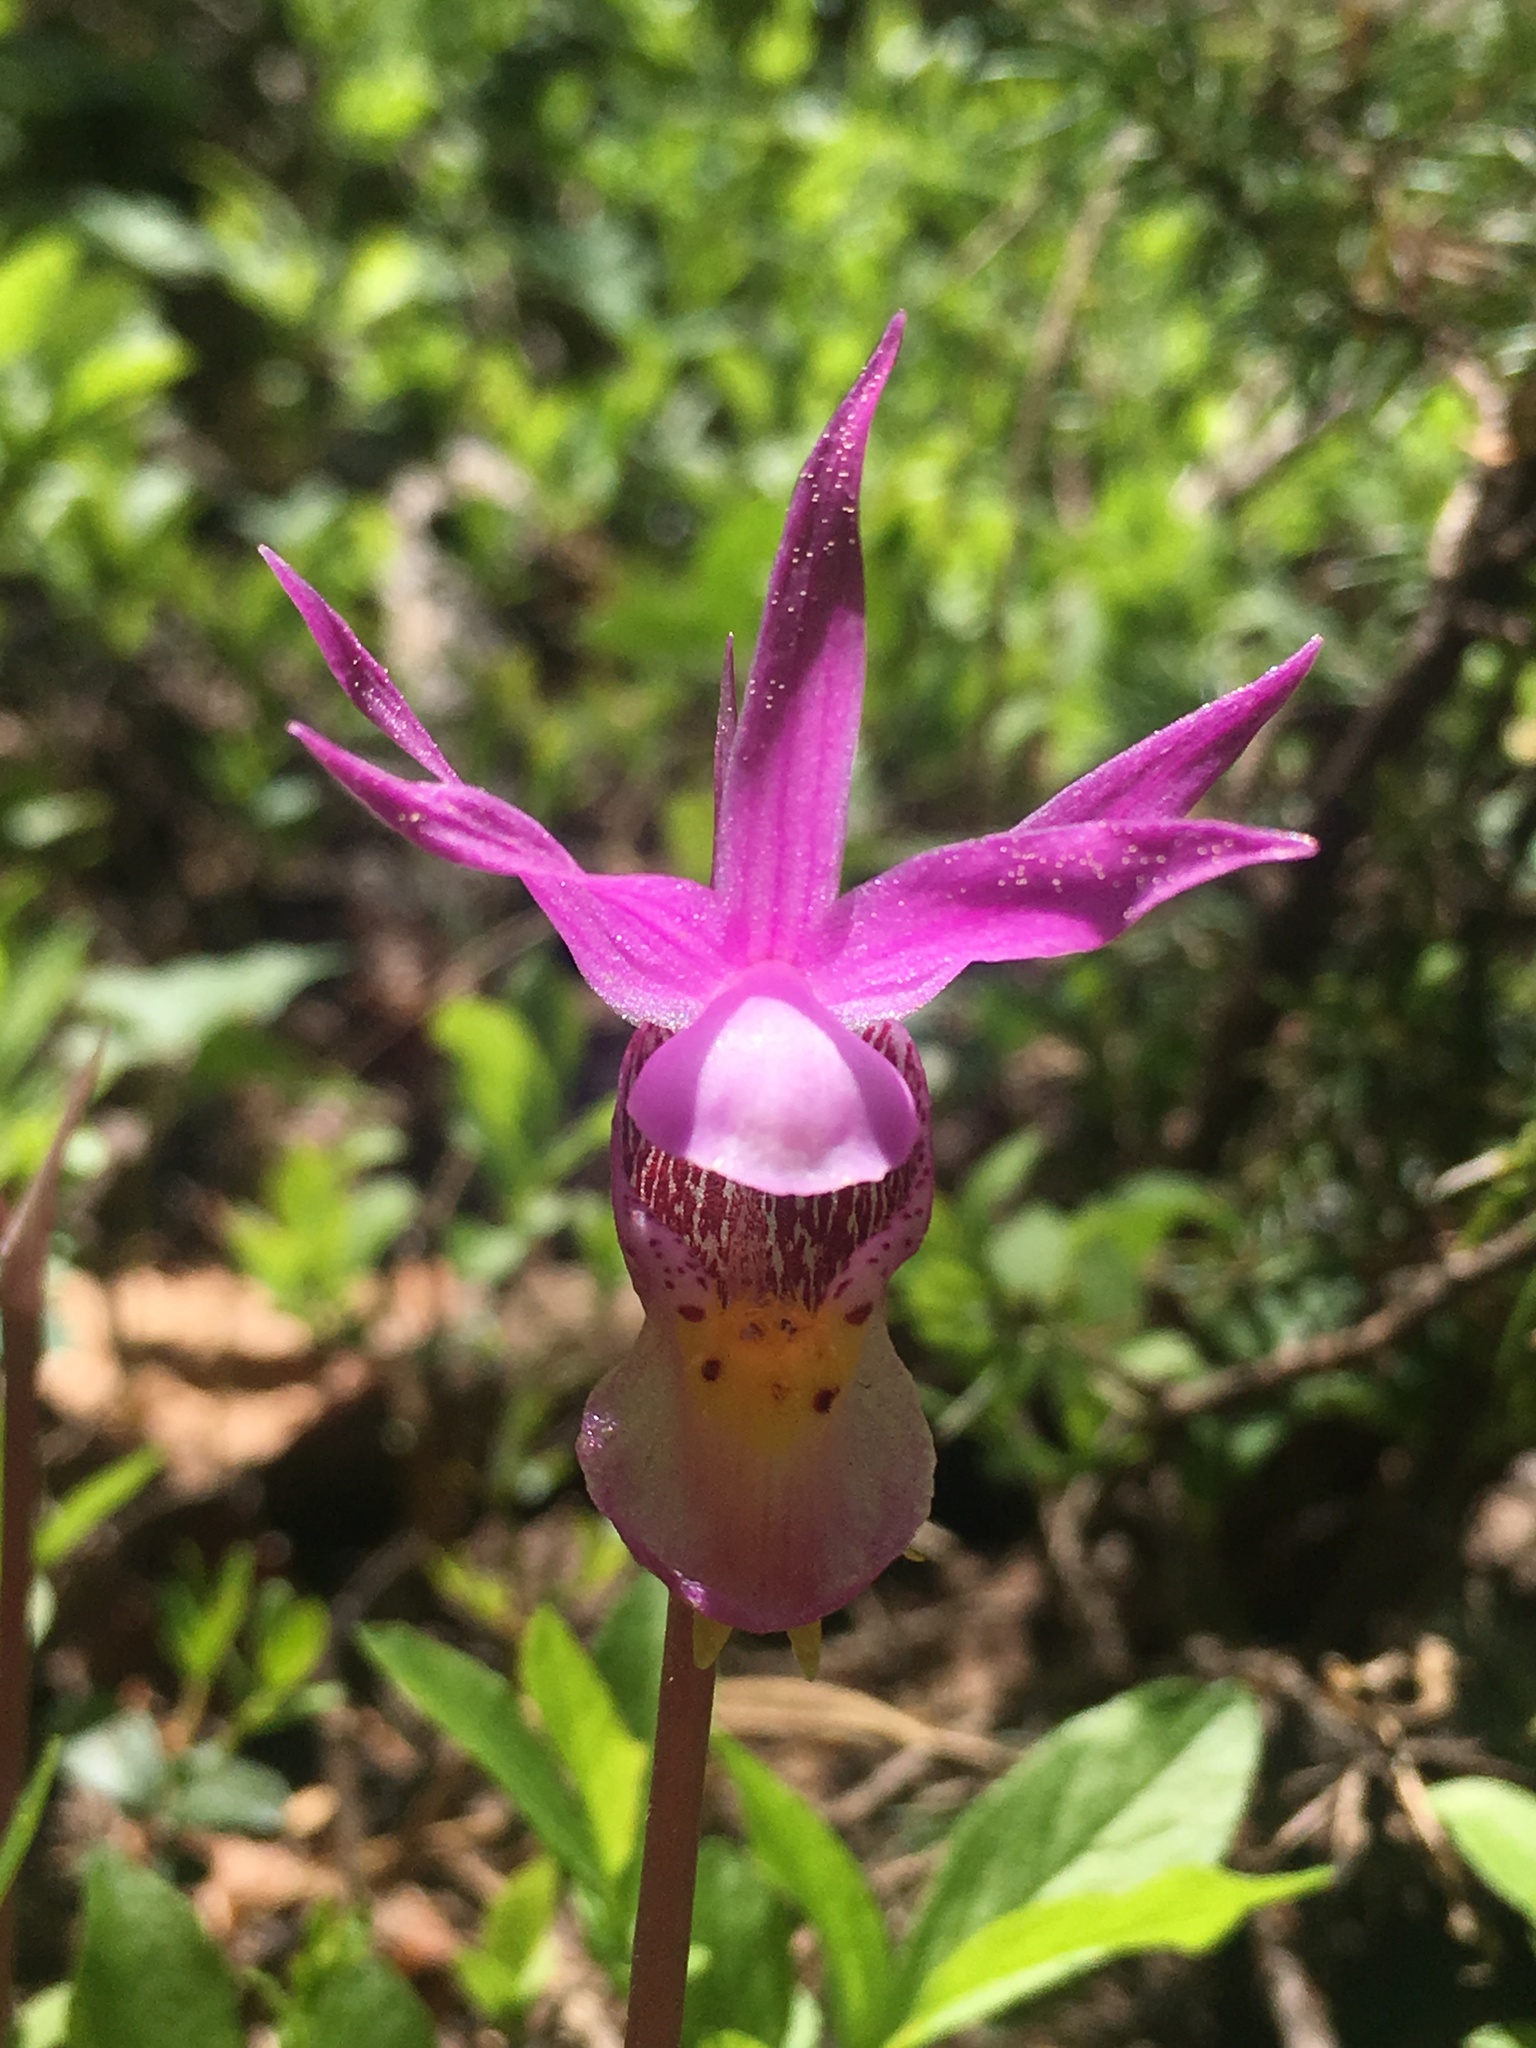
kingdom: Plantae
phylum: Tracheophyta
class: Liliopsida
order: Asparagales
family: Orchidaceae
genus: Calypso
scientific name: Calypso bulbosa
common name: Calypso
